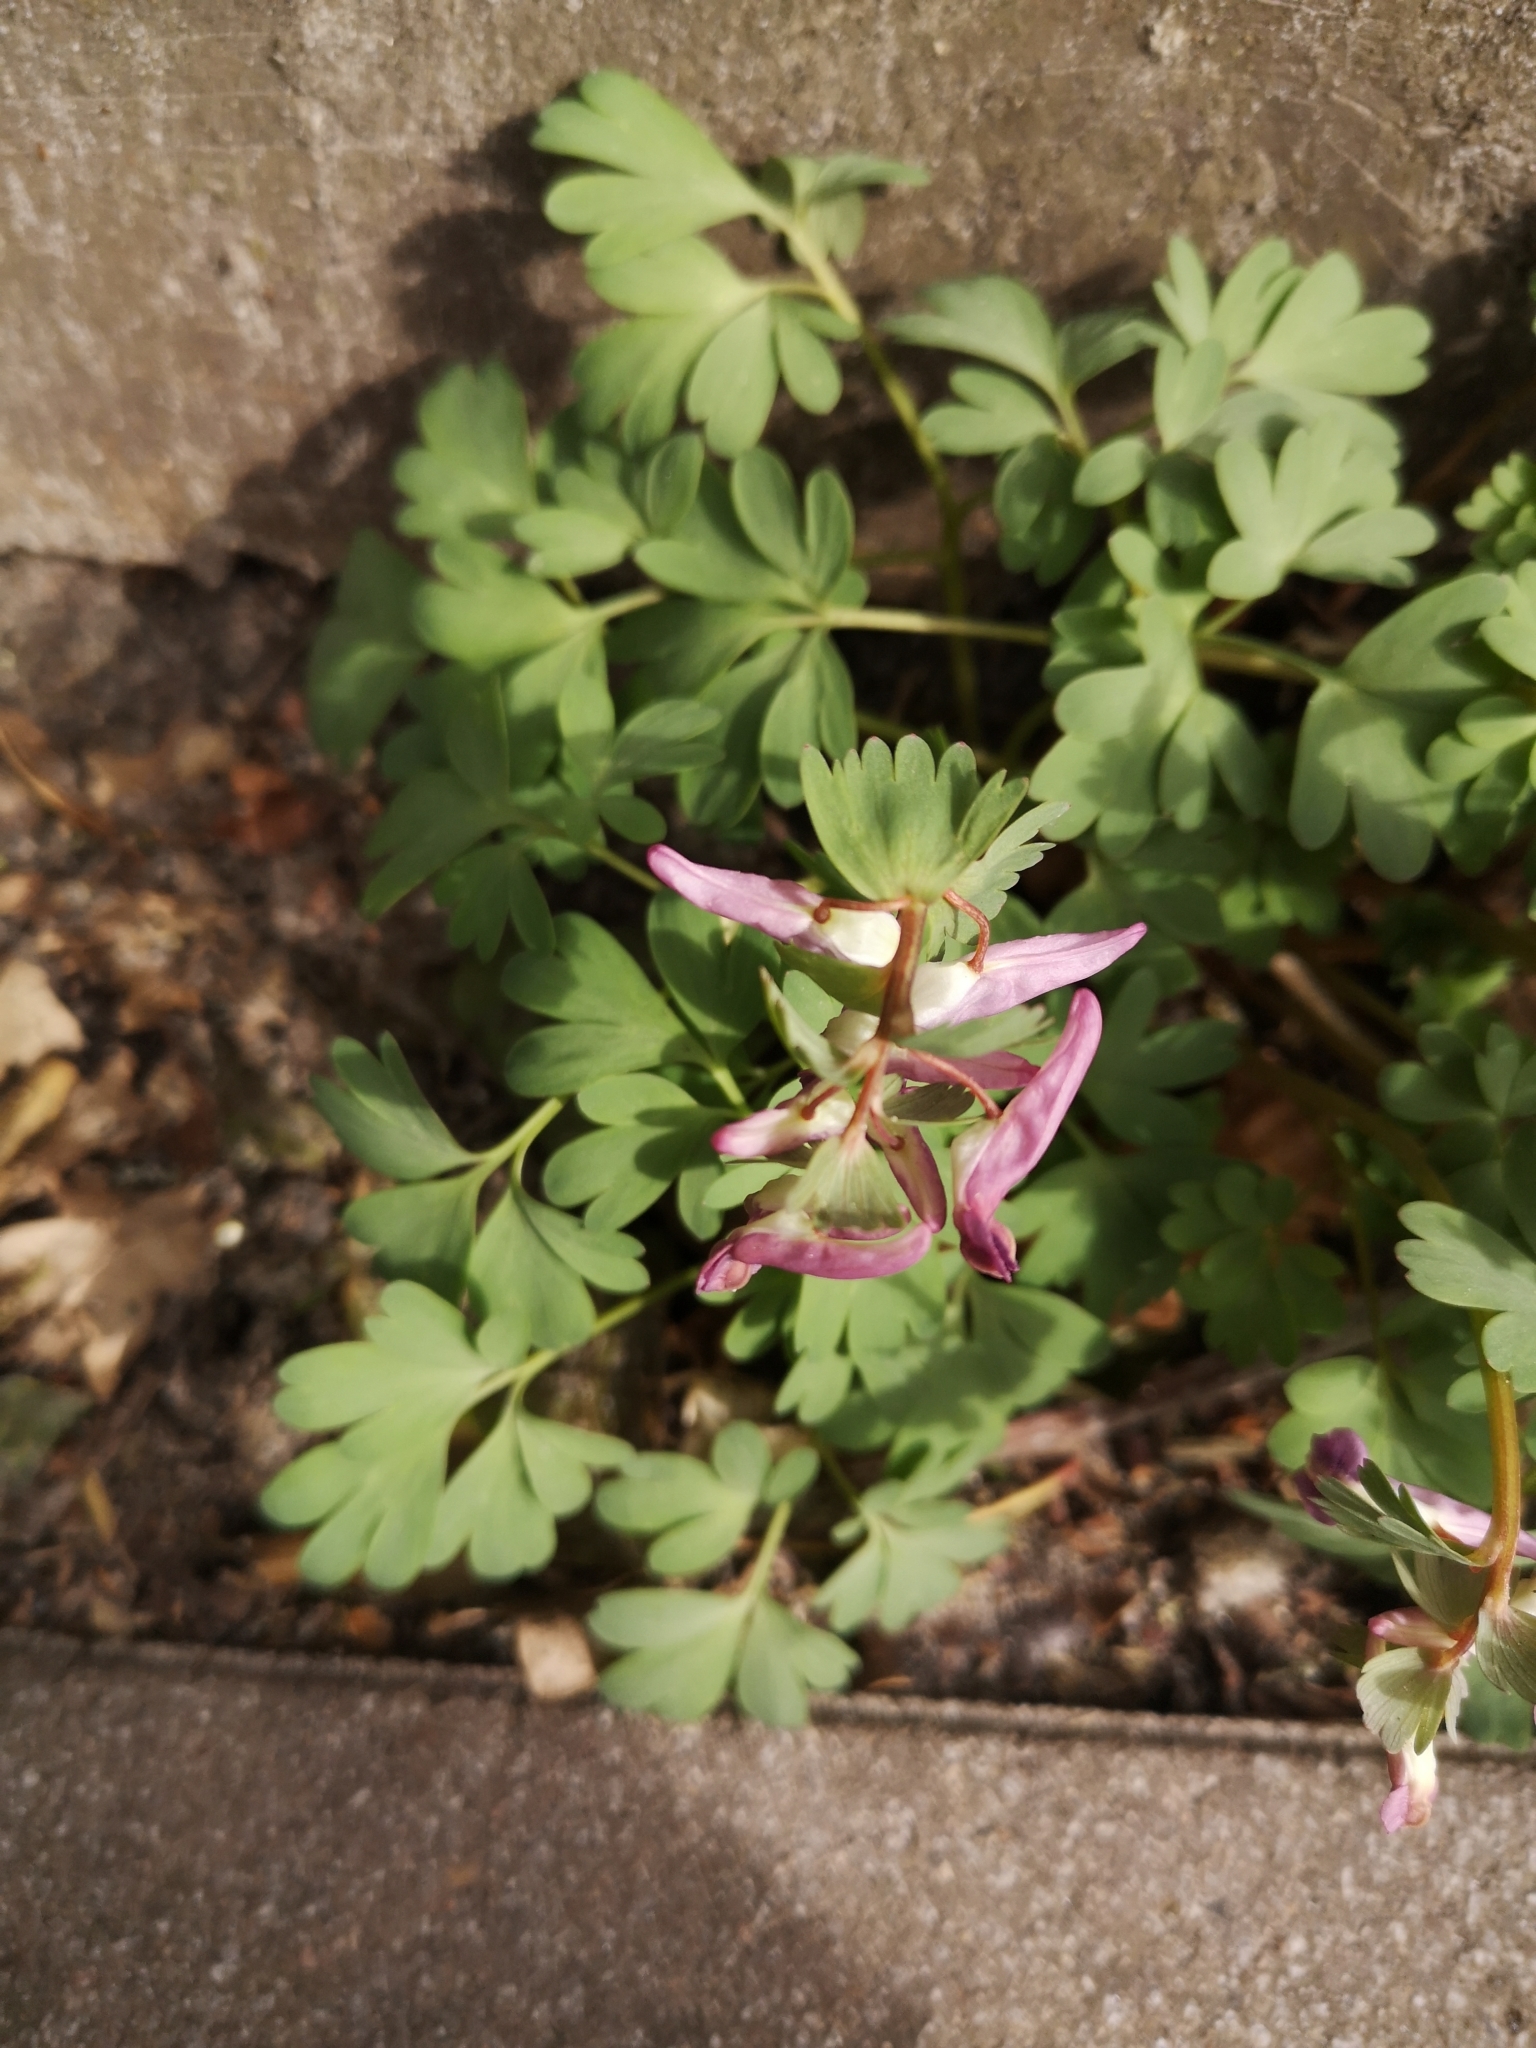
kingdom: Plantae
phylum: Tracheophyta
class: Magnoliopsida
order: Ranunculales
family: Papaveraceae
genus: Corydalis
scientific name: Corydalis solida
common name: Bird-in-a-bush
